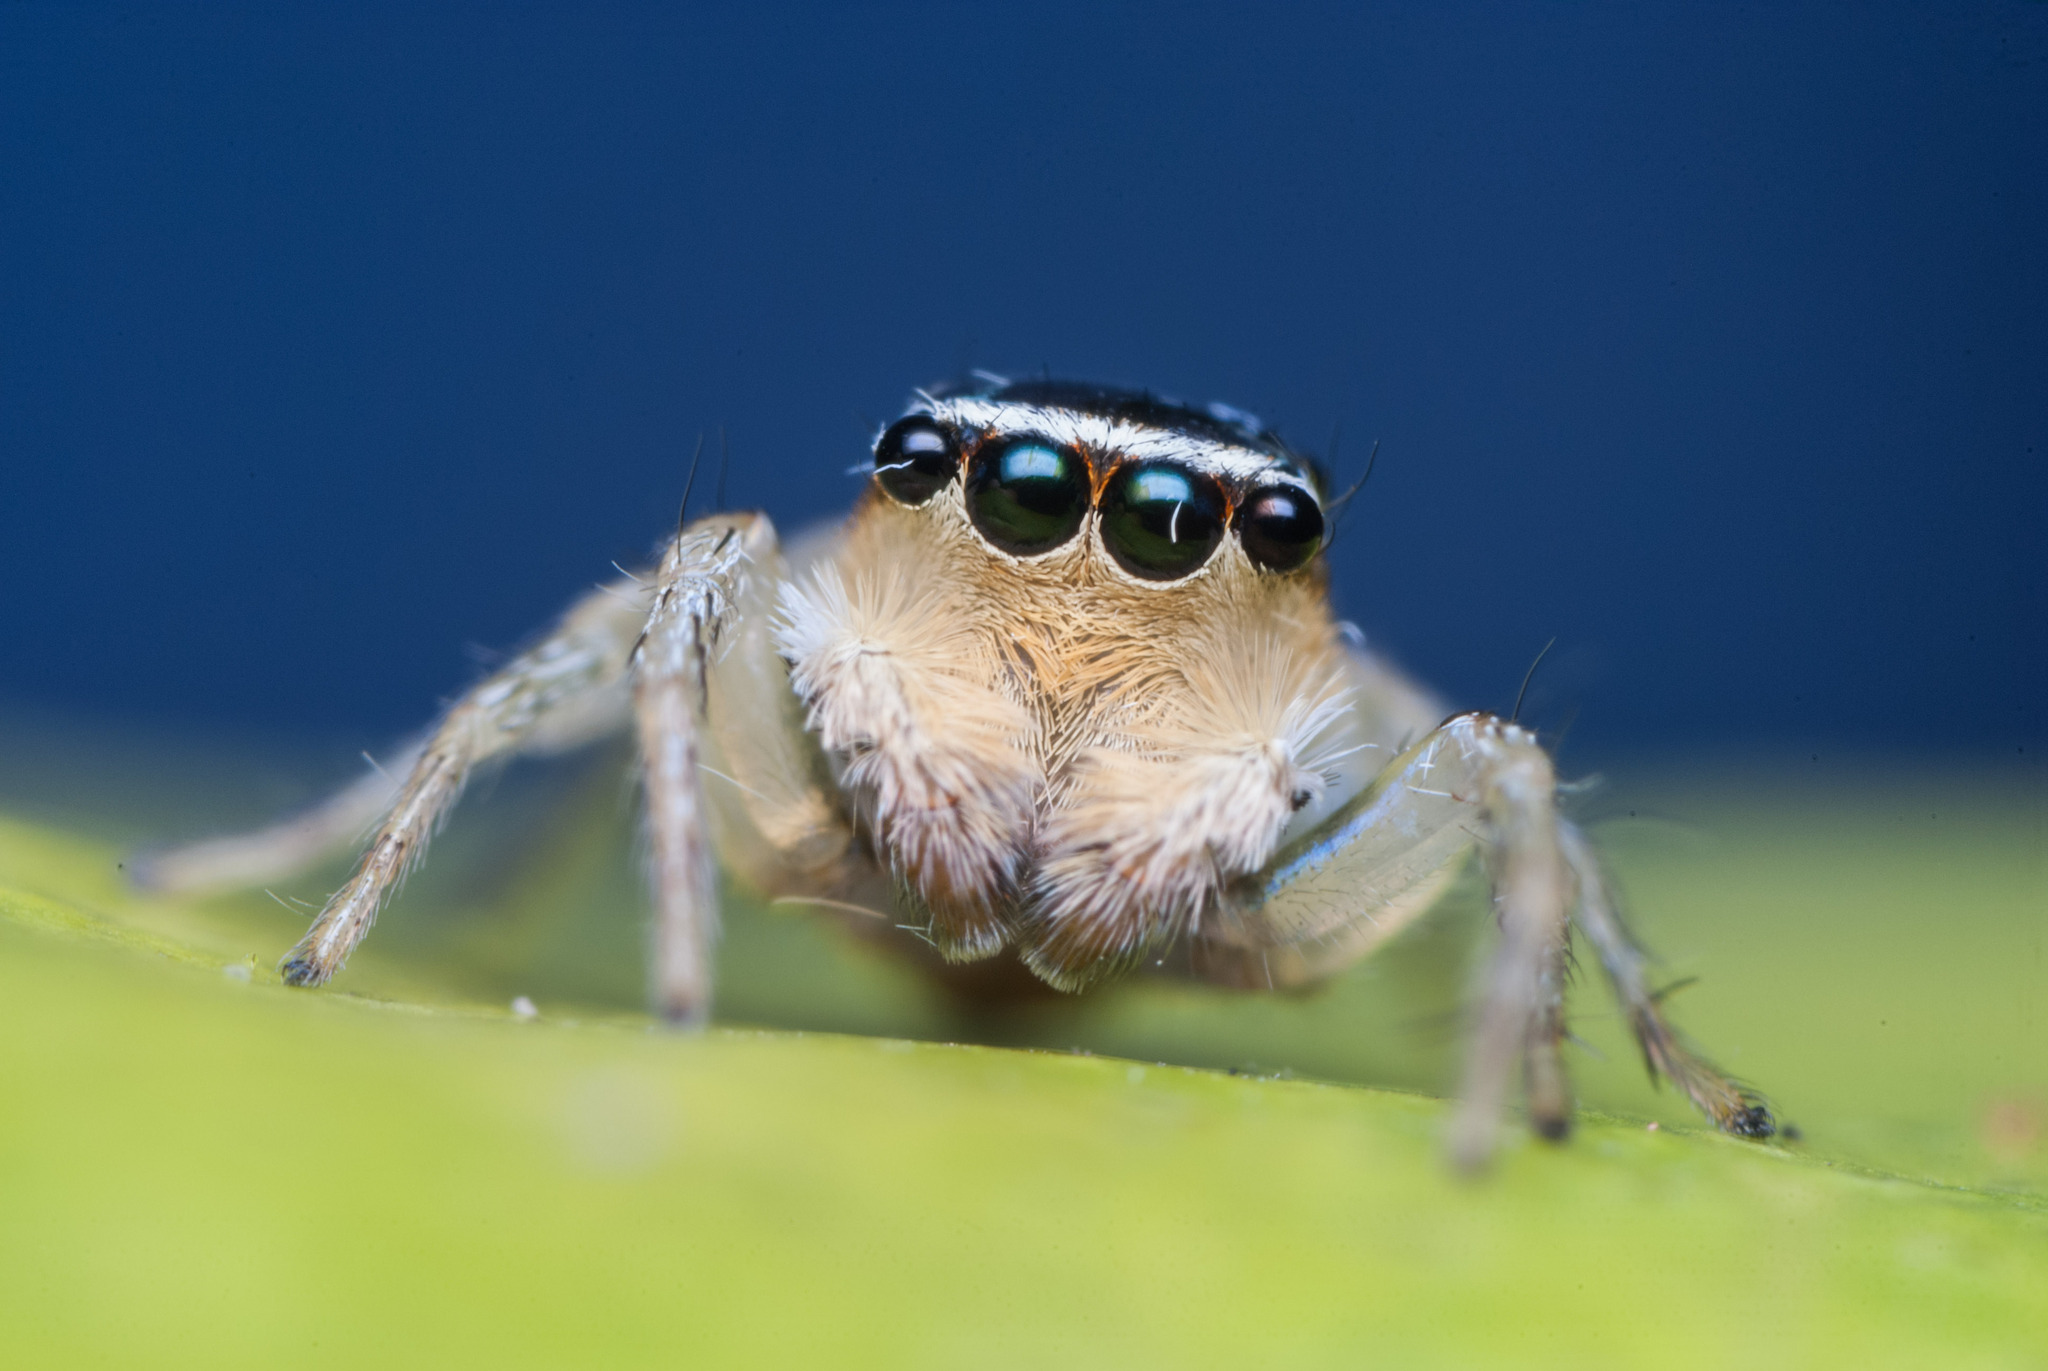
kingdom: Animalia
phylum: Arthropoda
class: Arachnida
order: Araneae
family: Salticidae
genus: Maeota
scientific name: Maeota
